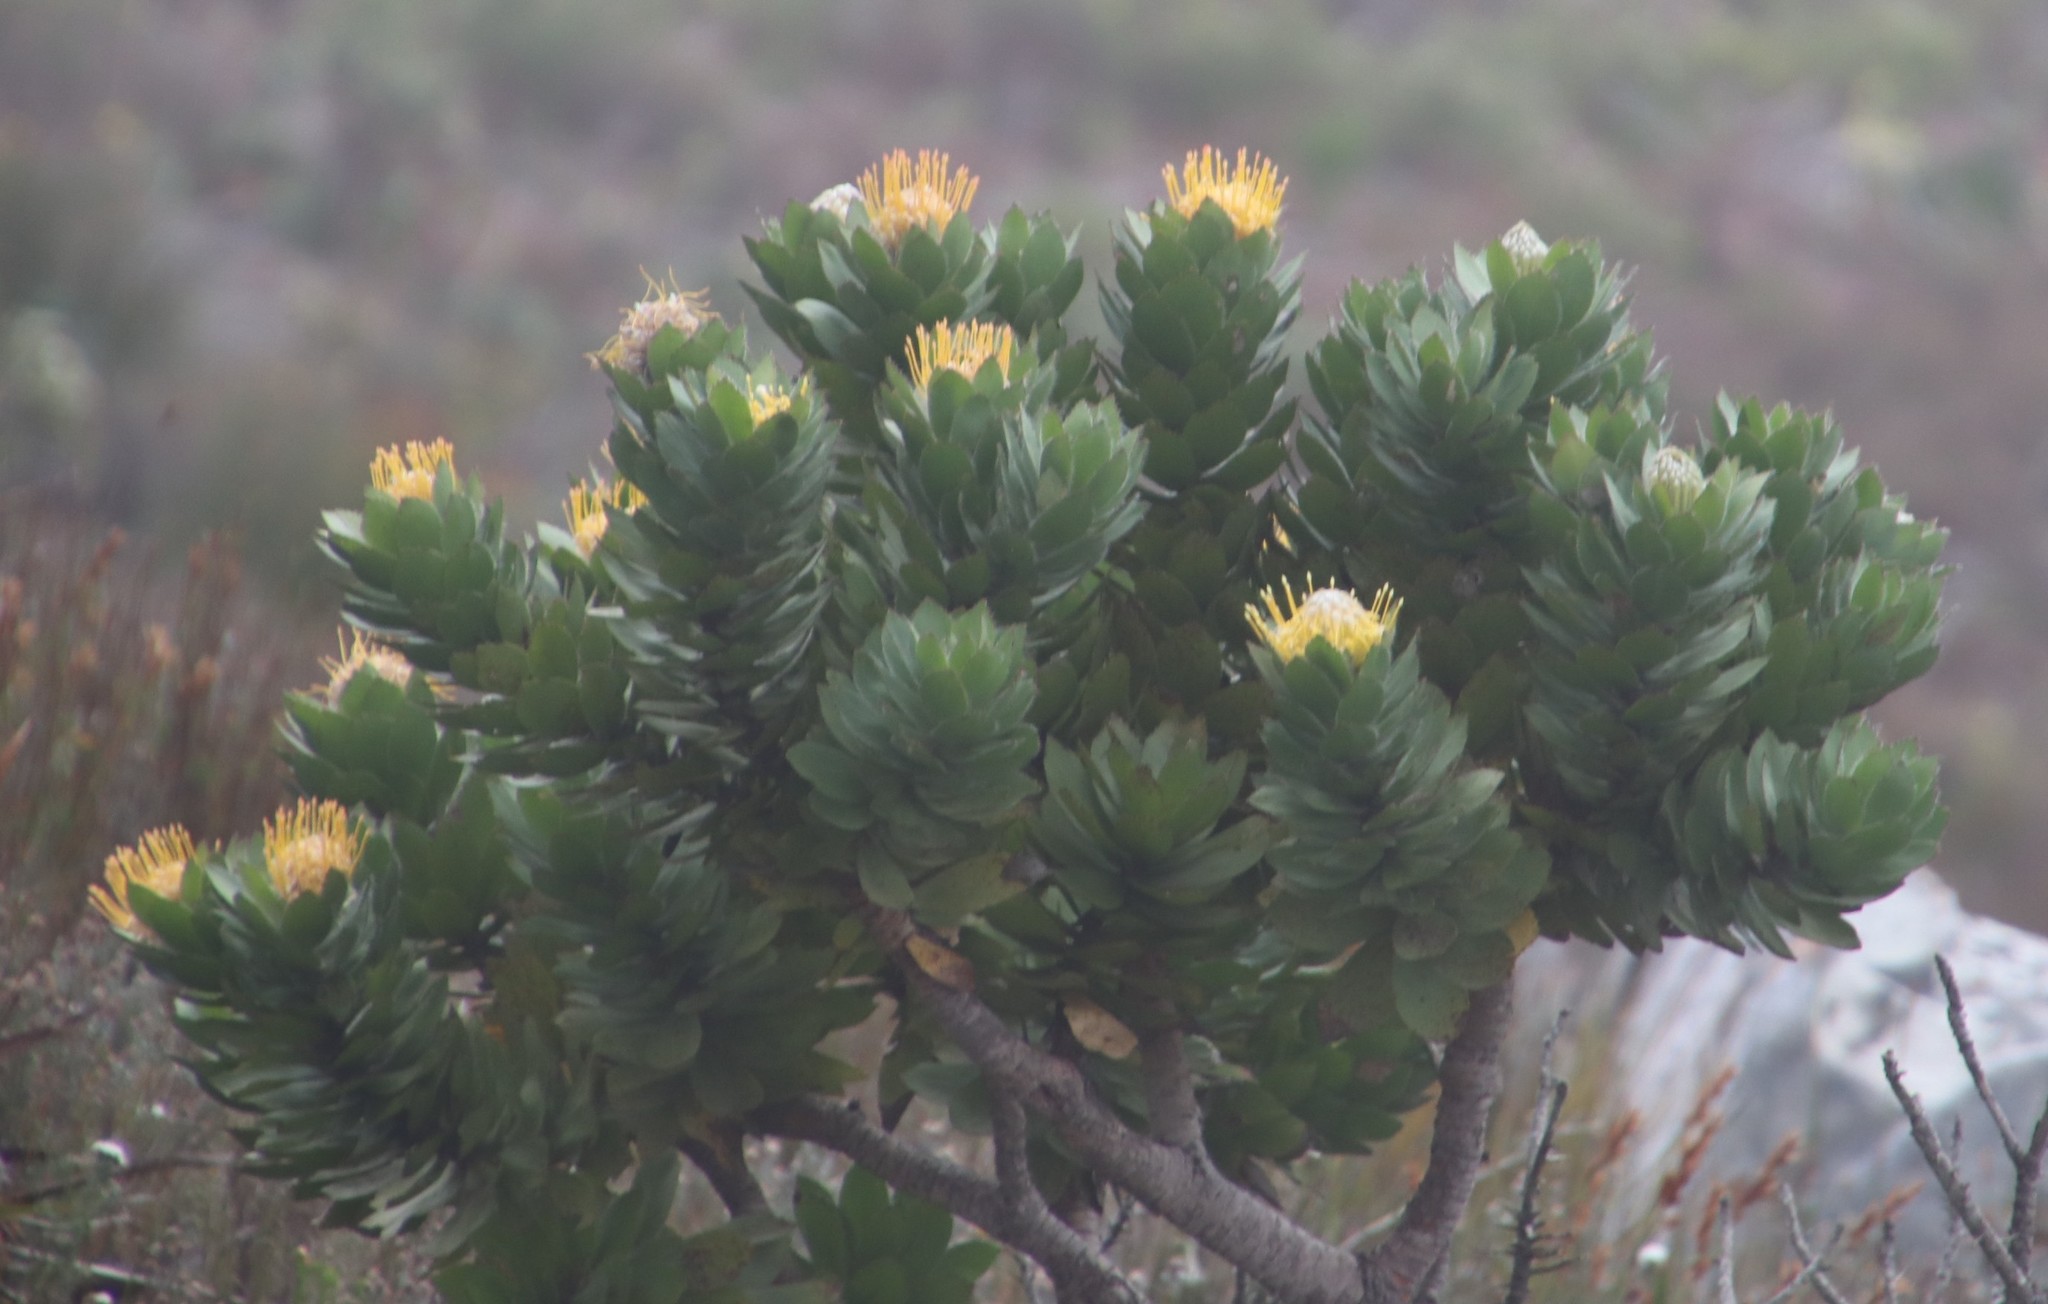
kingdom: Plantae
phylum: Tracheophyta
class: Magnoliopsida
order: Proteales
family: Proteaceae
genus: Leucospermum
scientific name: Leucospermum conocarpodendron
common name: Tree pincushion
